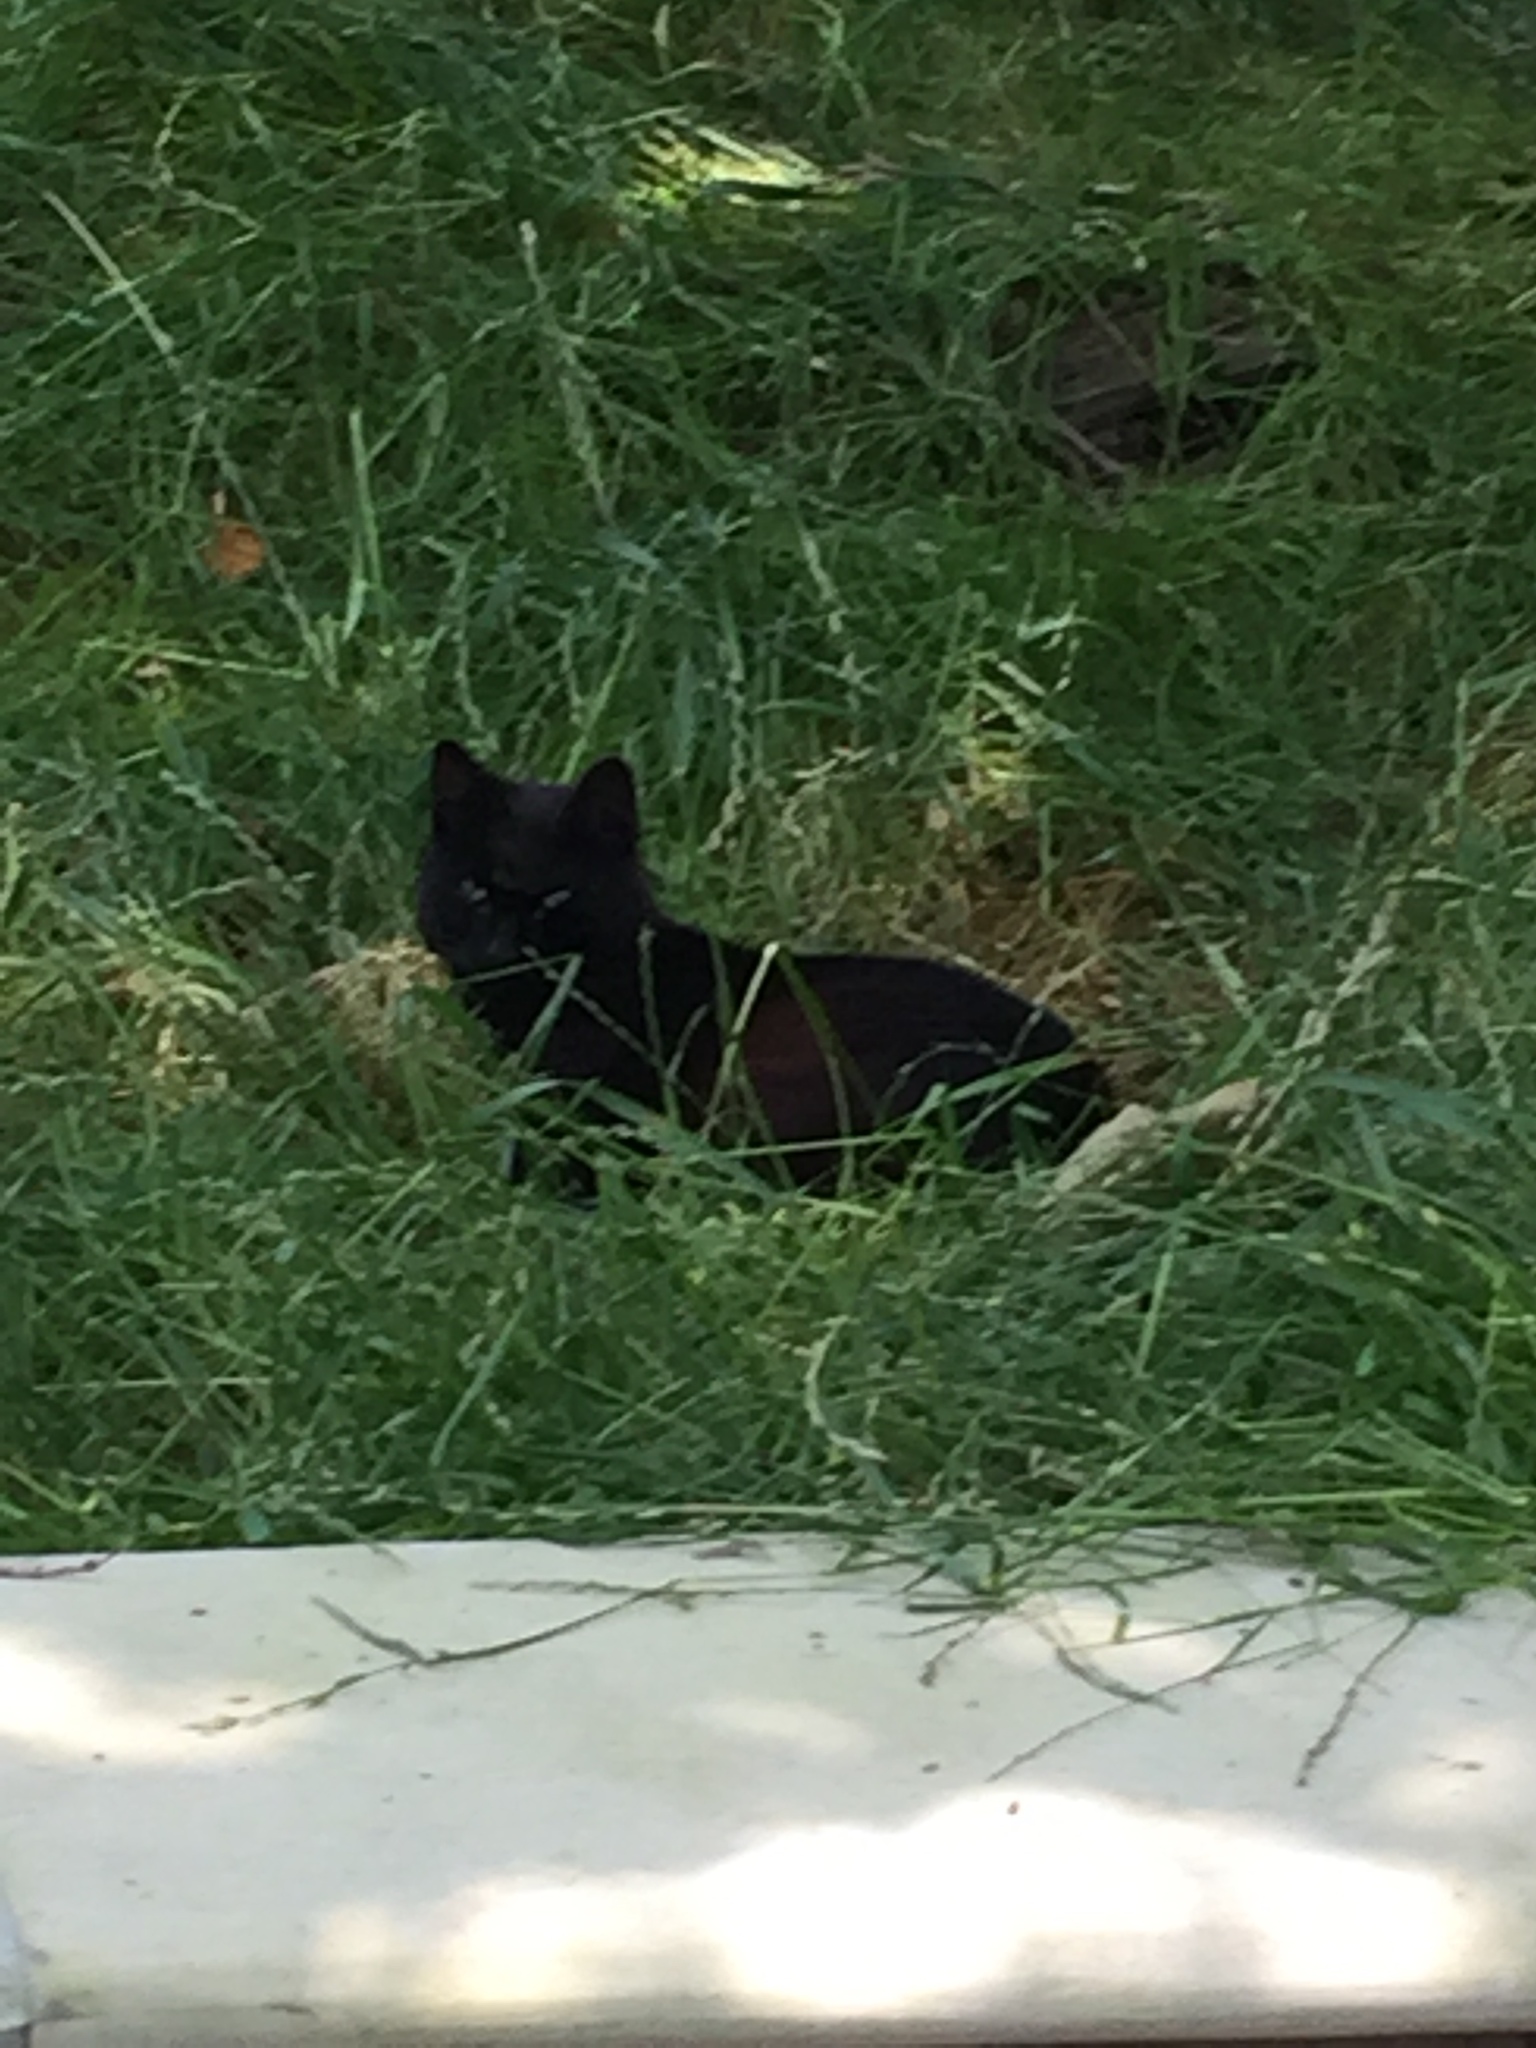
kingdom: Animalia
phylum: Chordata
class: Mammalia
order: Carnivora
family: Felidae
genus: Felis
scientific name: Felis catus
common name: Domestic cat
